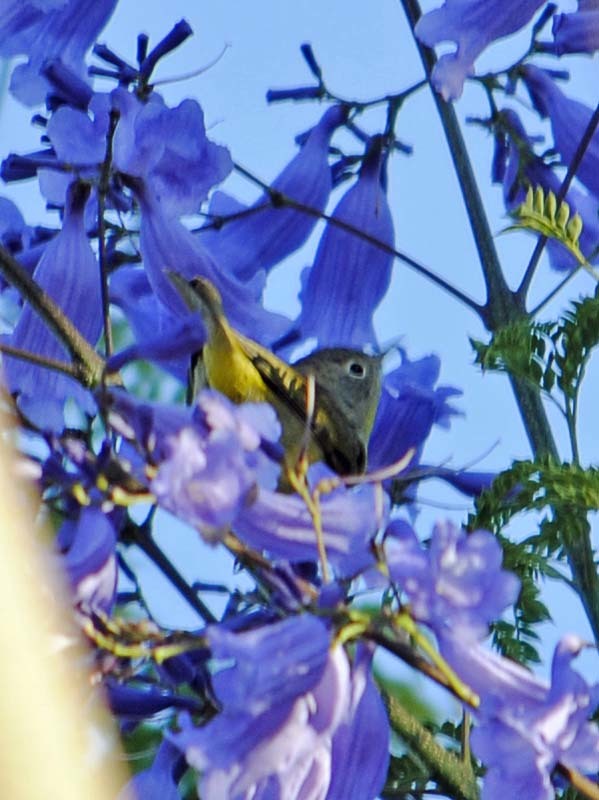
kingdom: Animalia
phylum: Chordata
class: Aves
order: Passeriformes
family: Parulidae
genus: Leiothlypis
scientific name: Leiothlypis ruficapilla
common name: Nashville warbler
